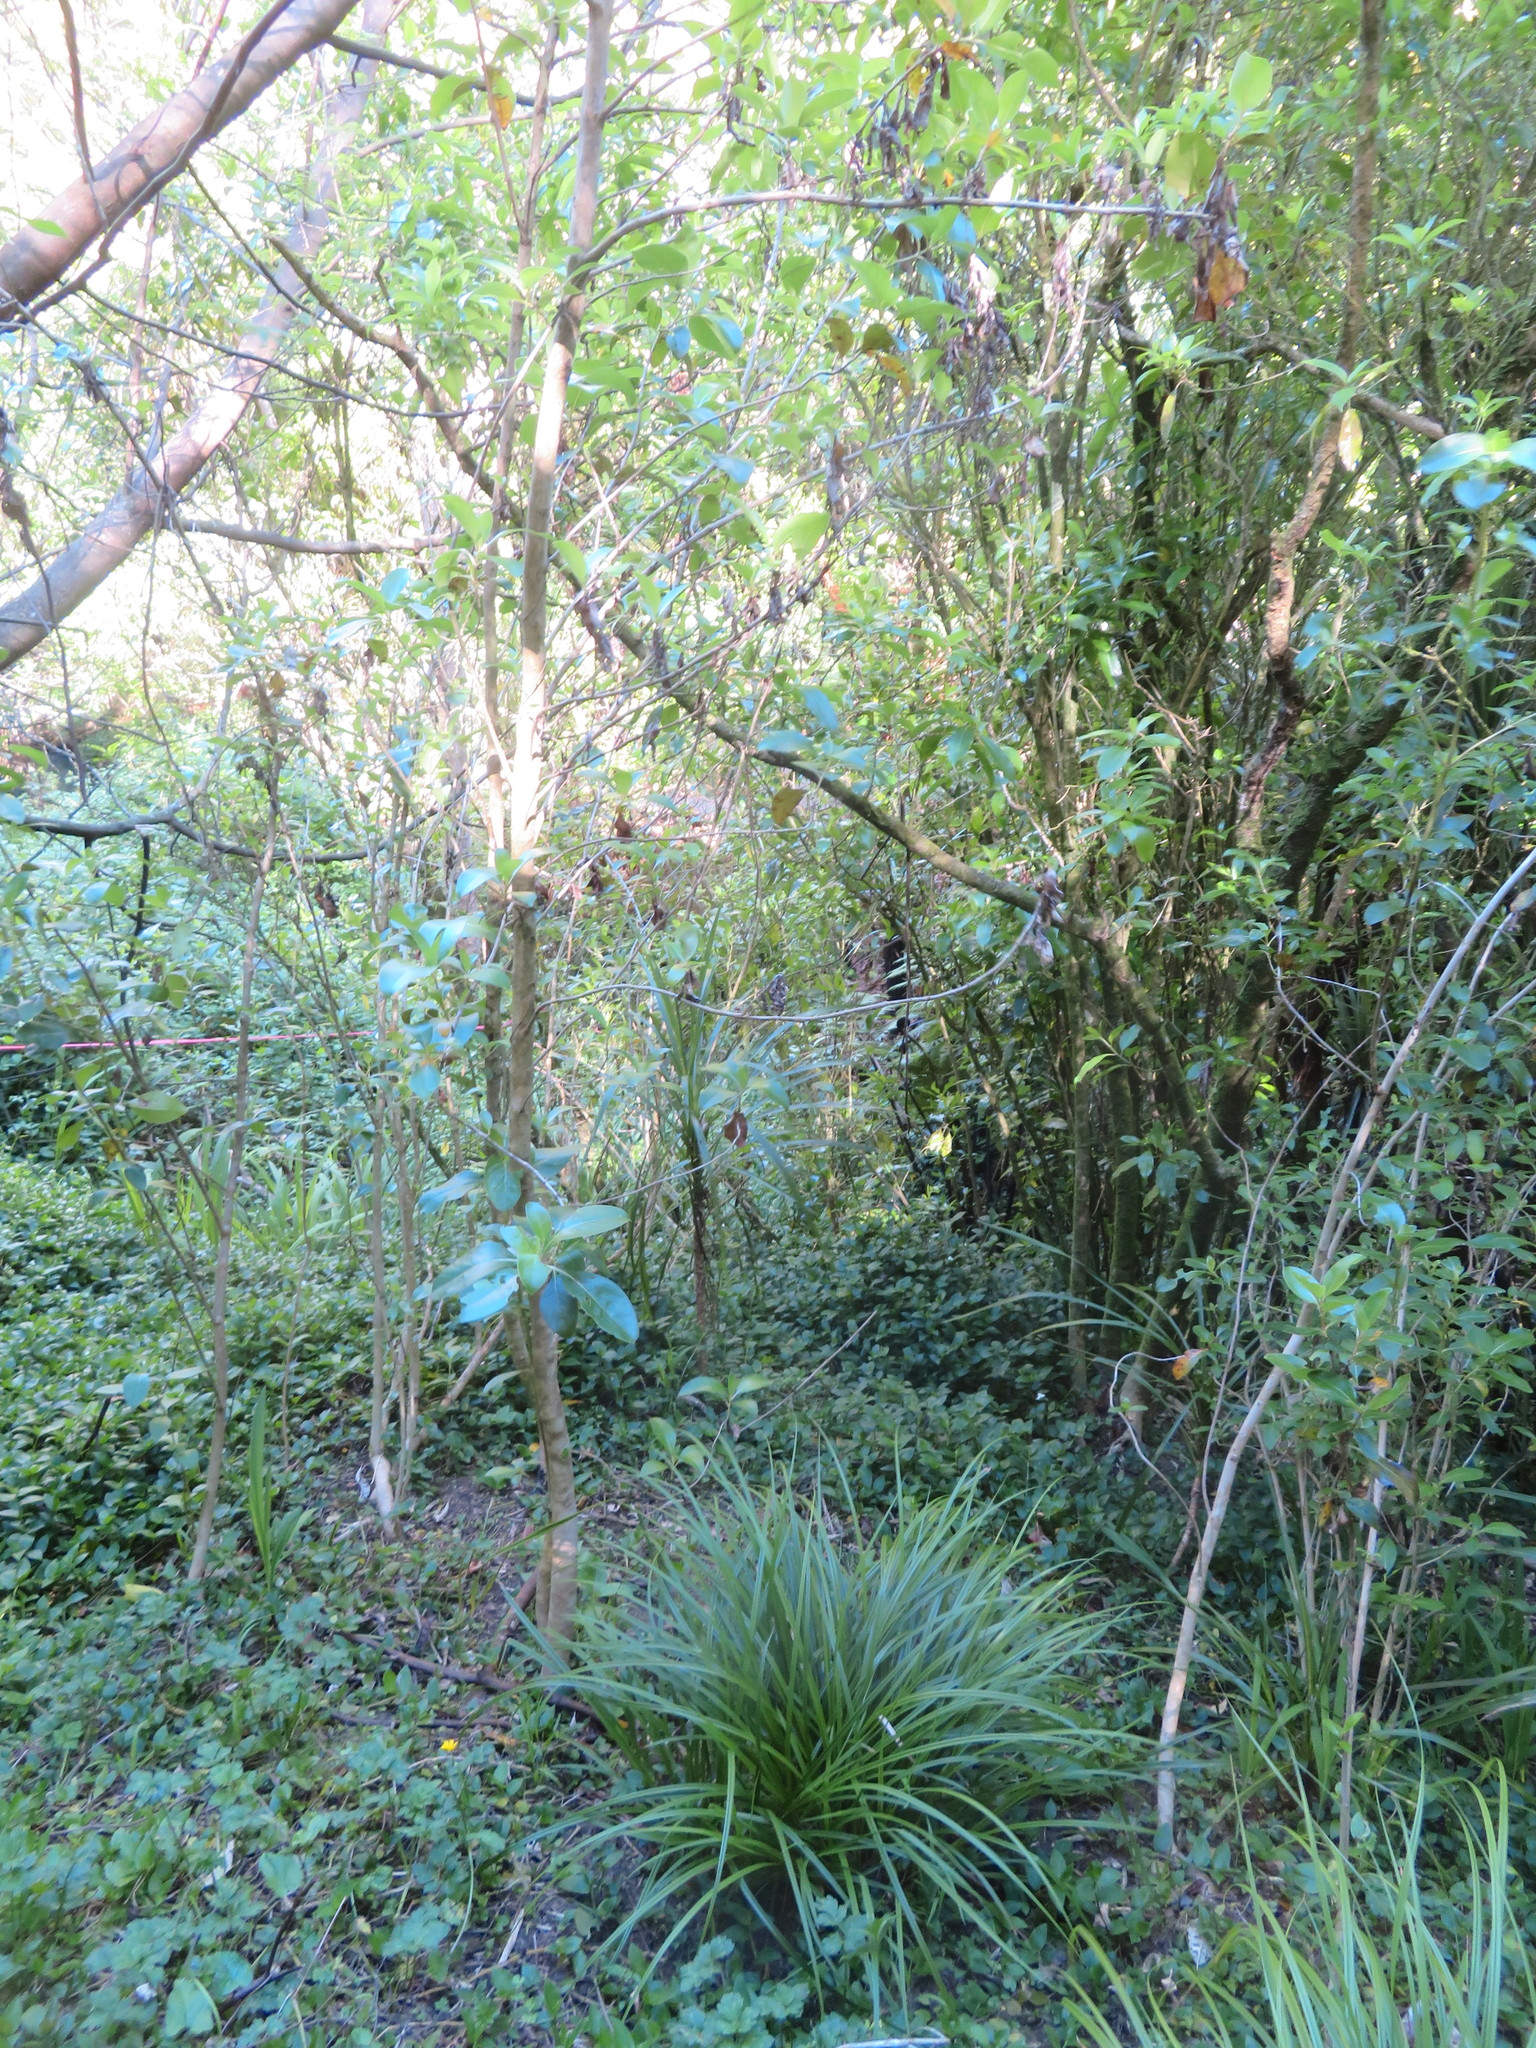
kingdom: Plantae
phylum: Tracheophyta
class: Magnoliopsida
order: Gentianales
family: Rubiaceae
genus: Coprosma
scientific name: Coprosma robusta
